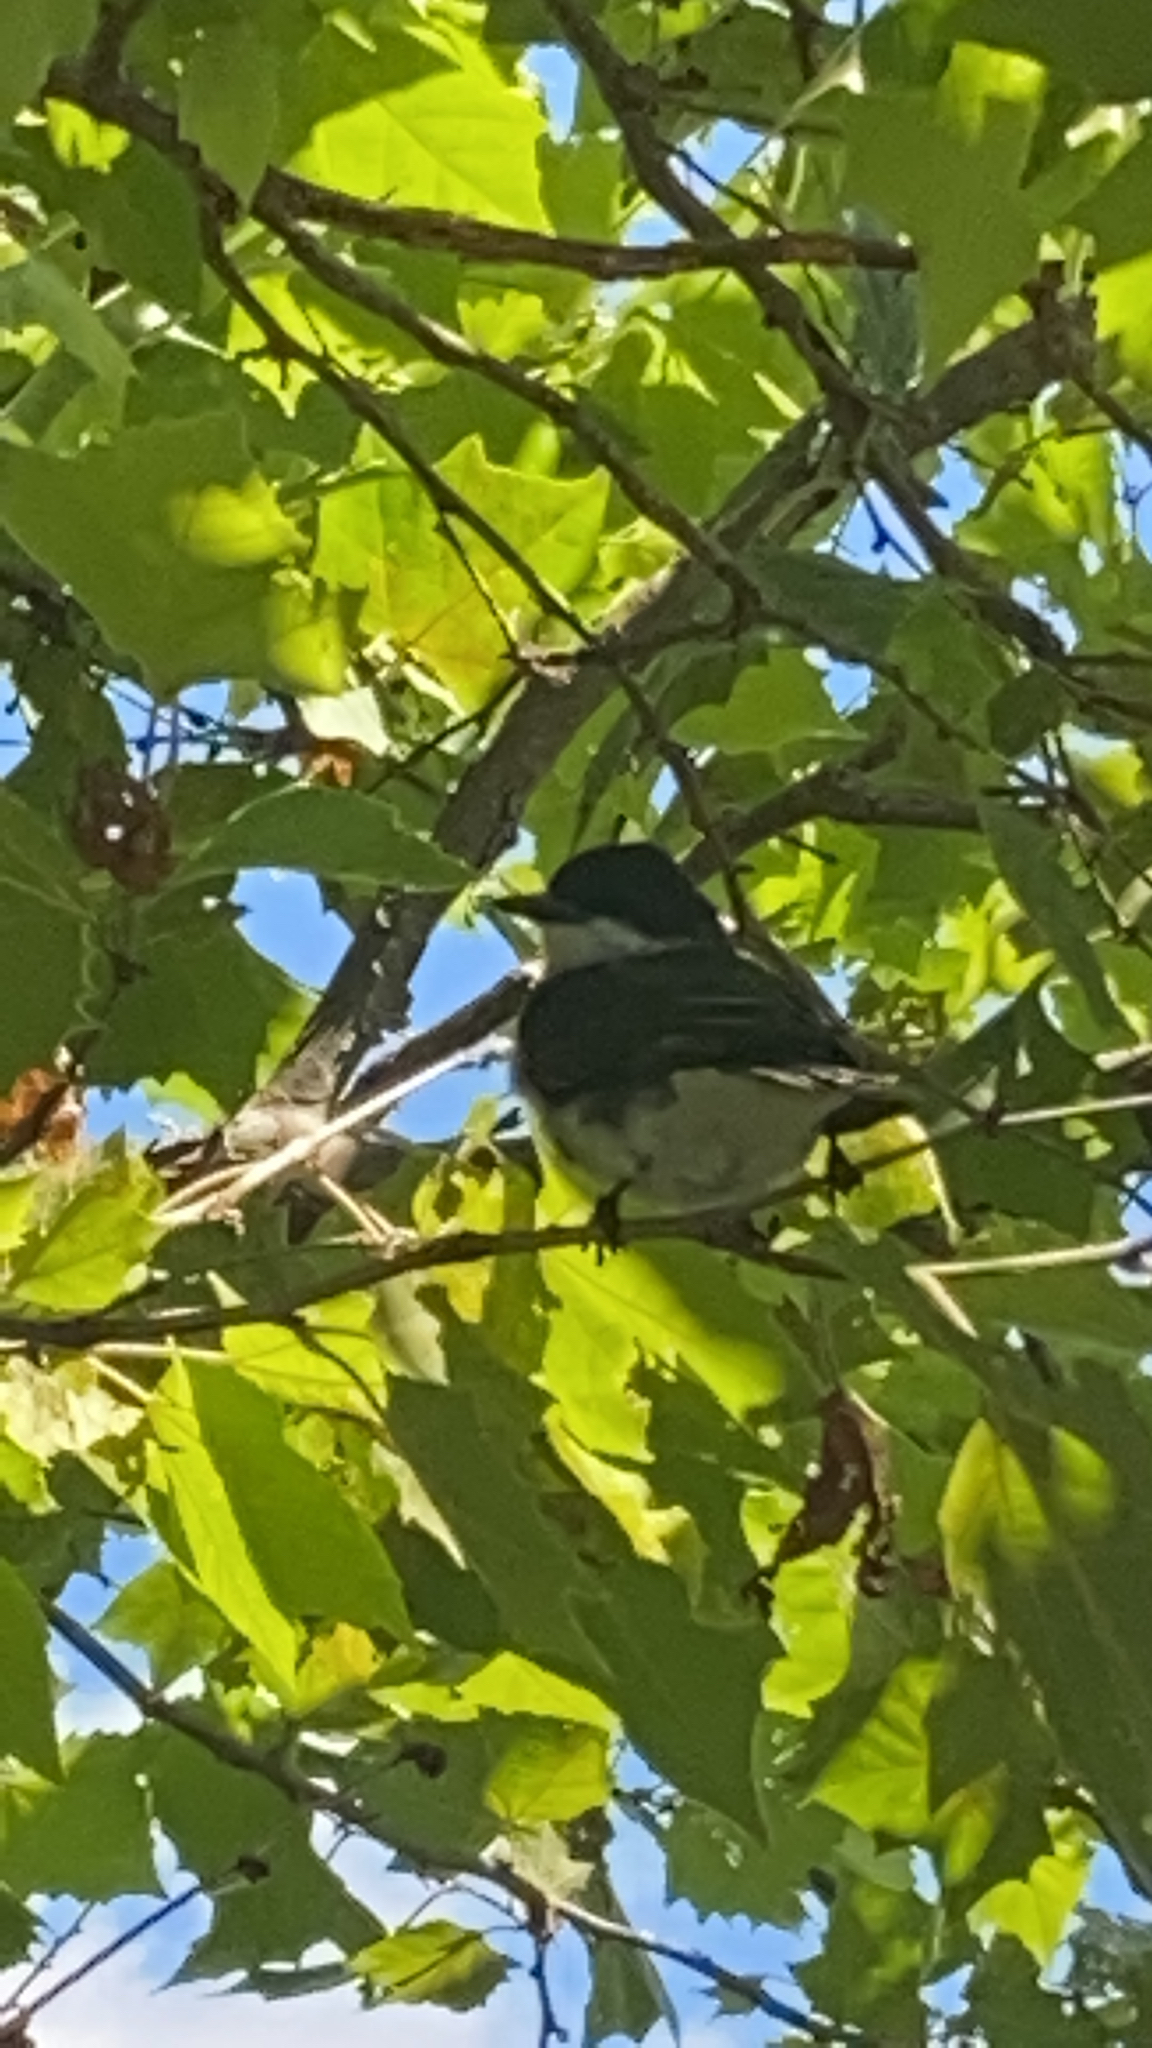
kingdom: Animalia
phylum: Chordata
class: Aves
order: Passeriformes
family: Tyrannidae
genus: Tyrannus
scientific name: Tyrannus tyrannus
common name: Eastern kingbird
